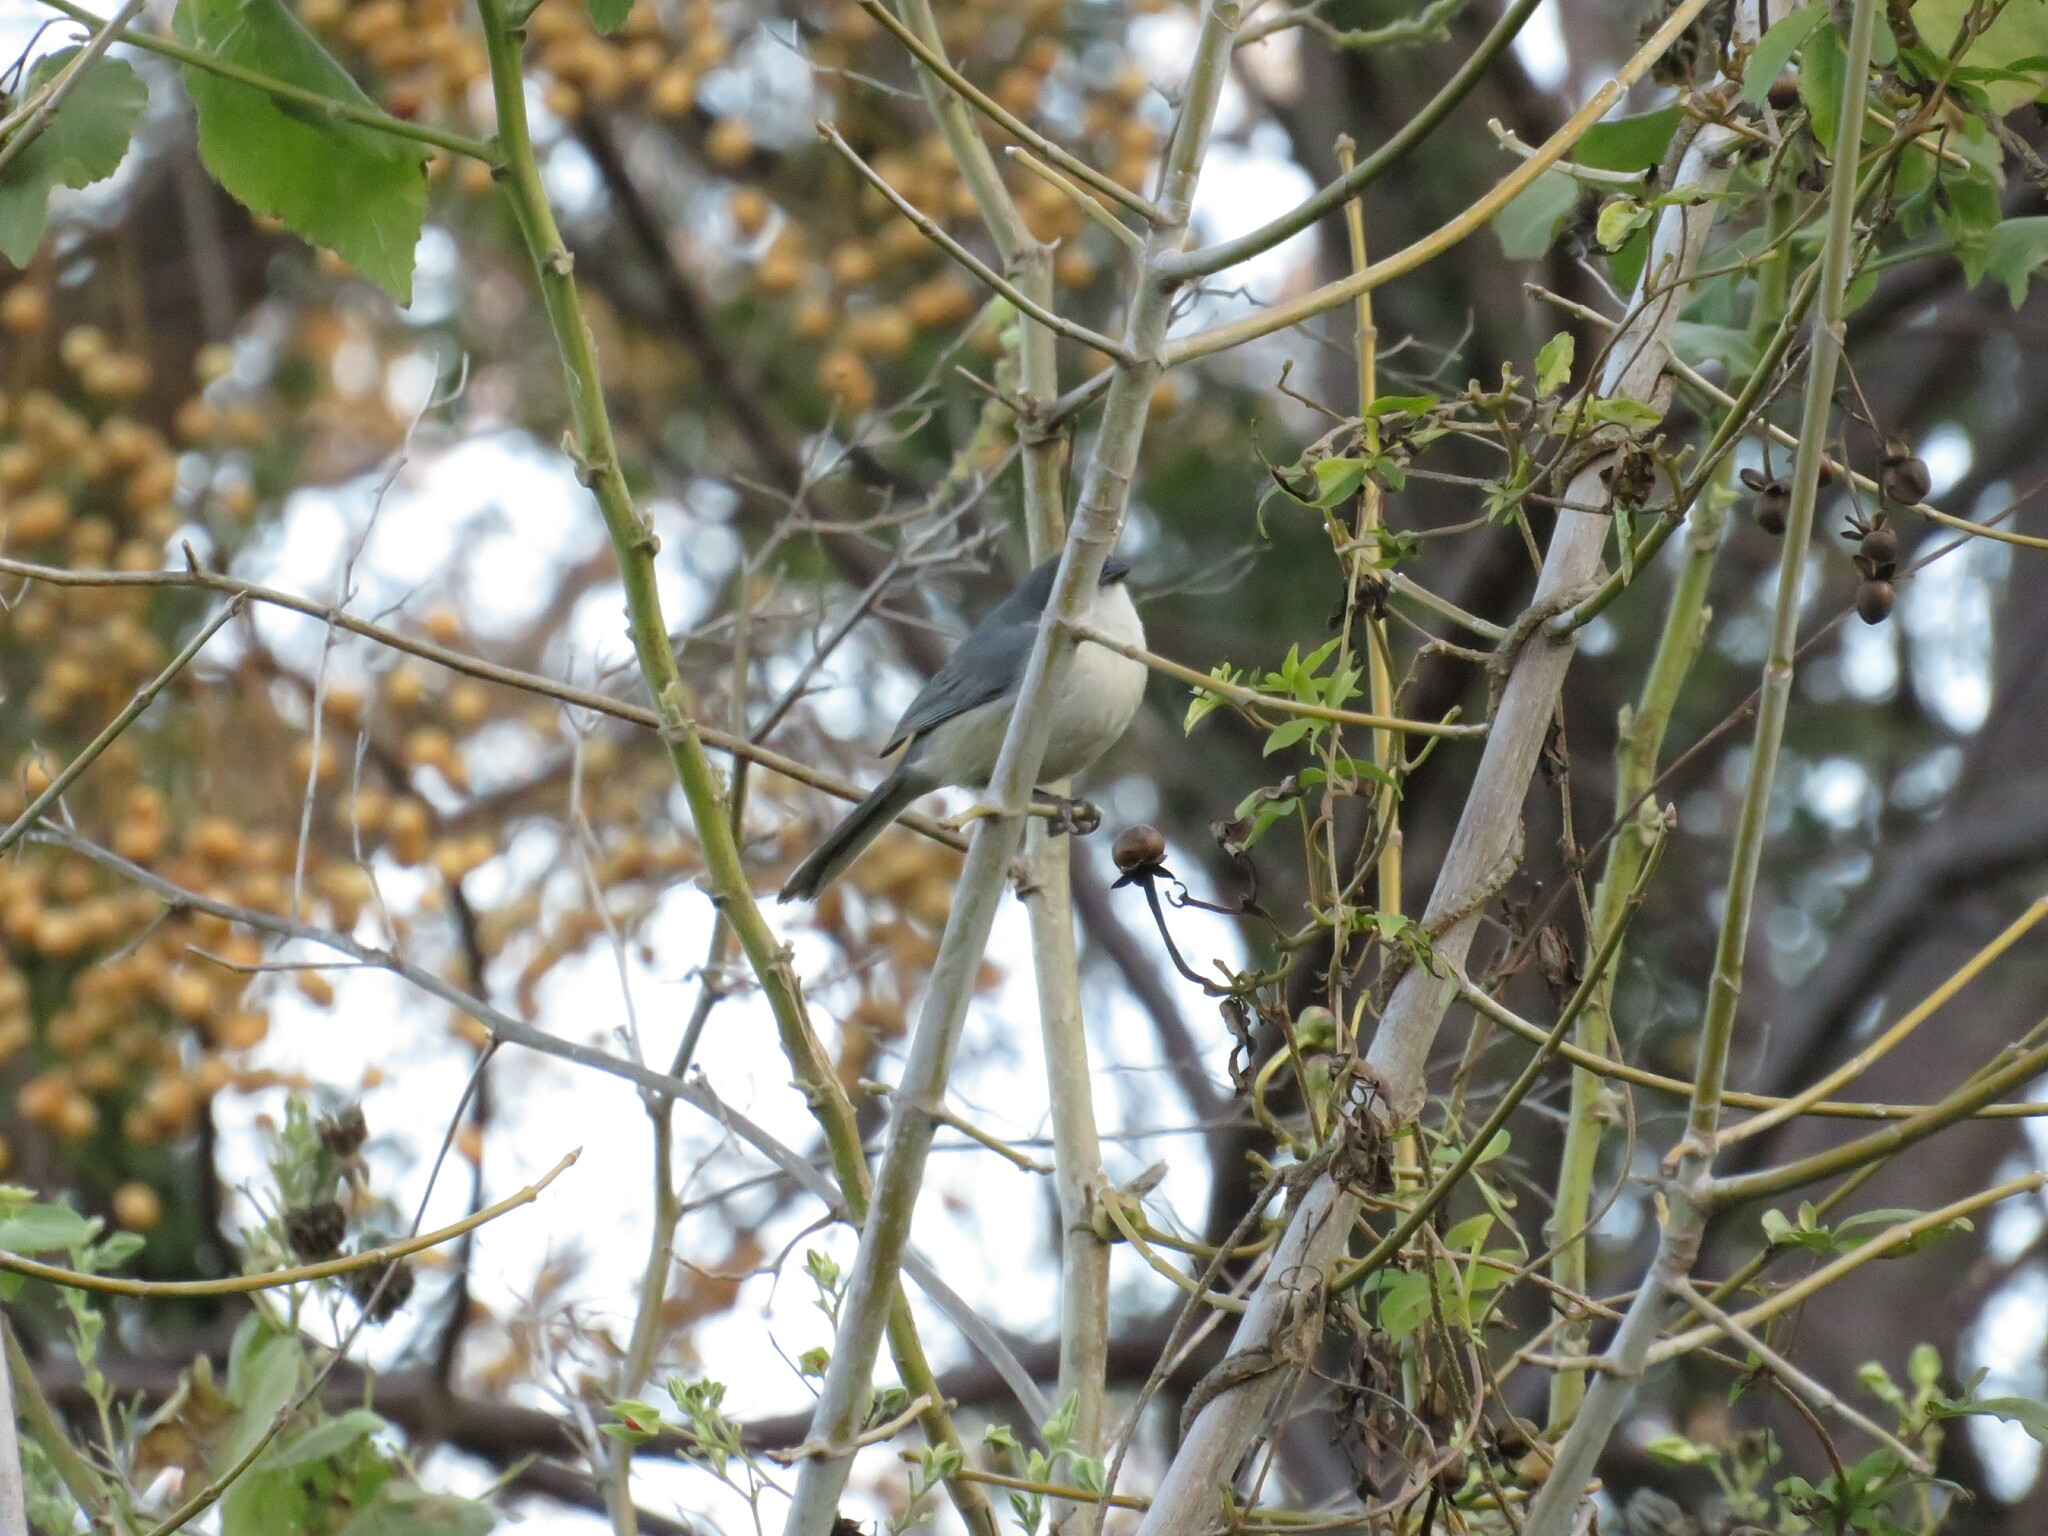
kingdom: Animalia
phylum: Chordata
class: Aves
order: Passeriformes
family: Thraupidae
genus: Microspingus
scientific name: Microspingus melanoleucus
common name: Black-capped warbling-finch
